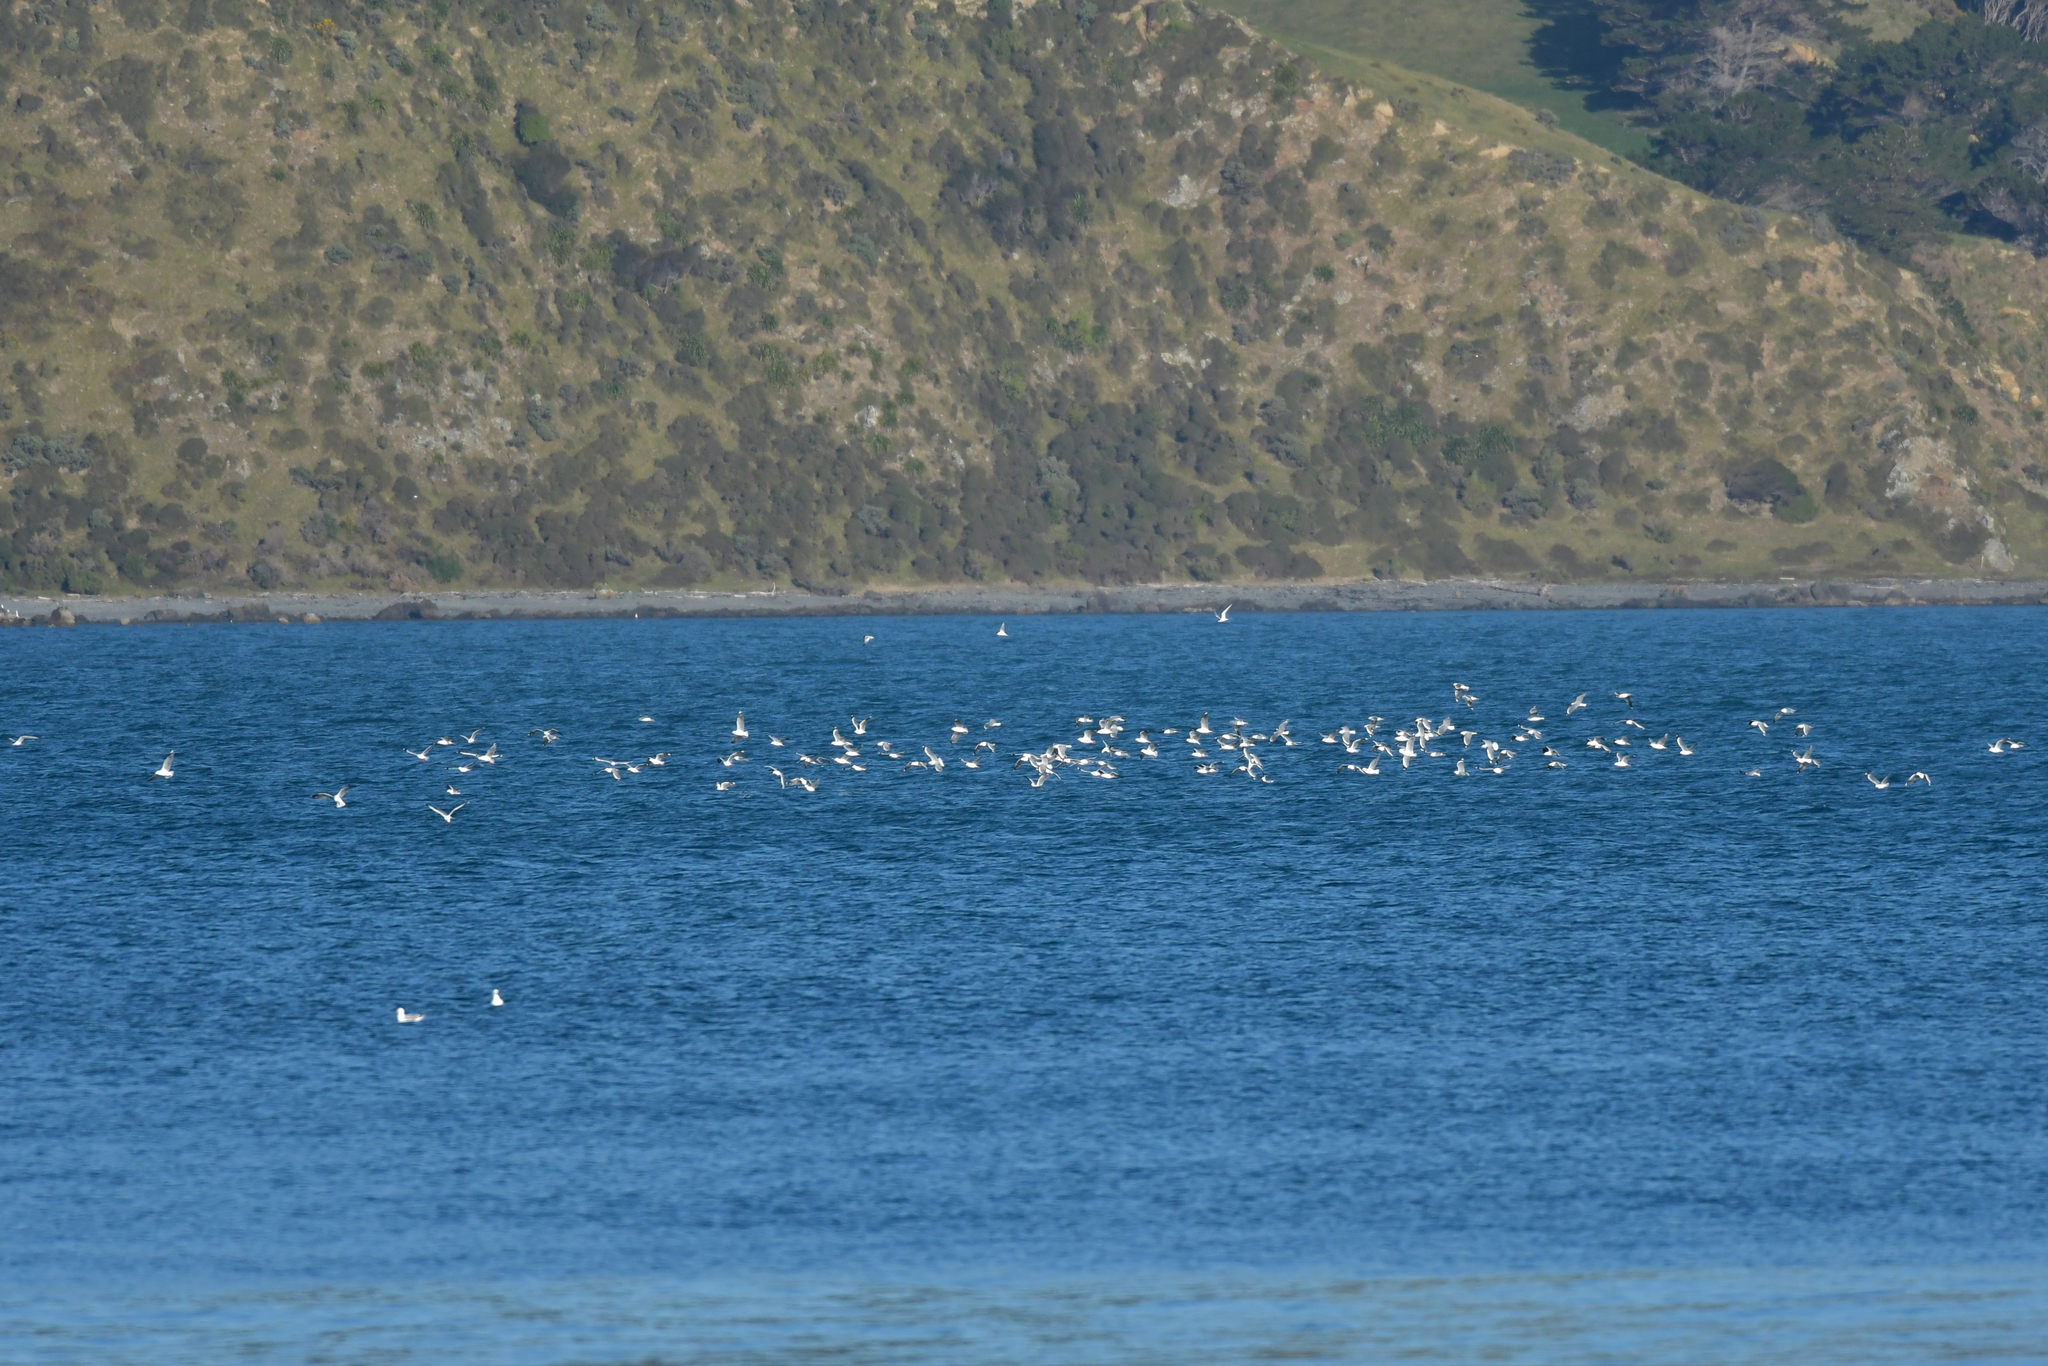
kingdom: Animalia
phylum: Chordata
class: Aves
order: Charadriiformes
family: Laridae
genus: Chroicocephalus
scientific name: Chroicocephalus novaehollandiae
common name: Silver gull
